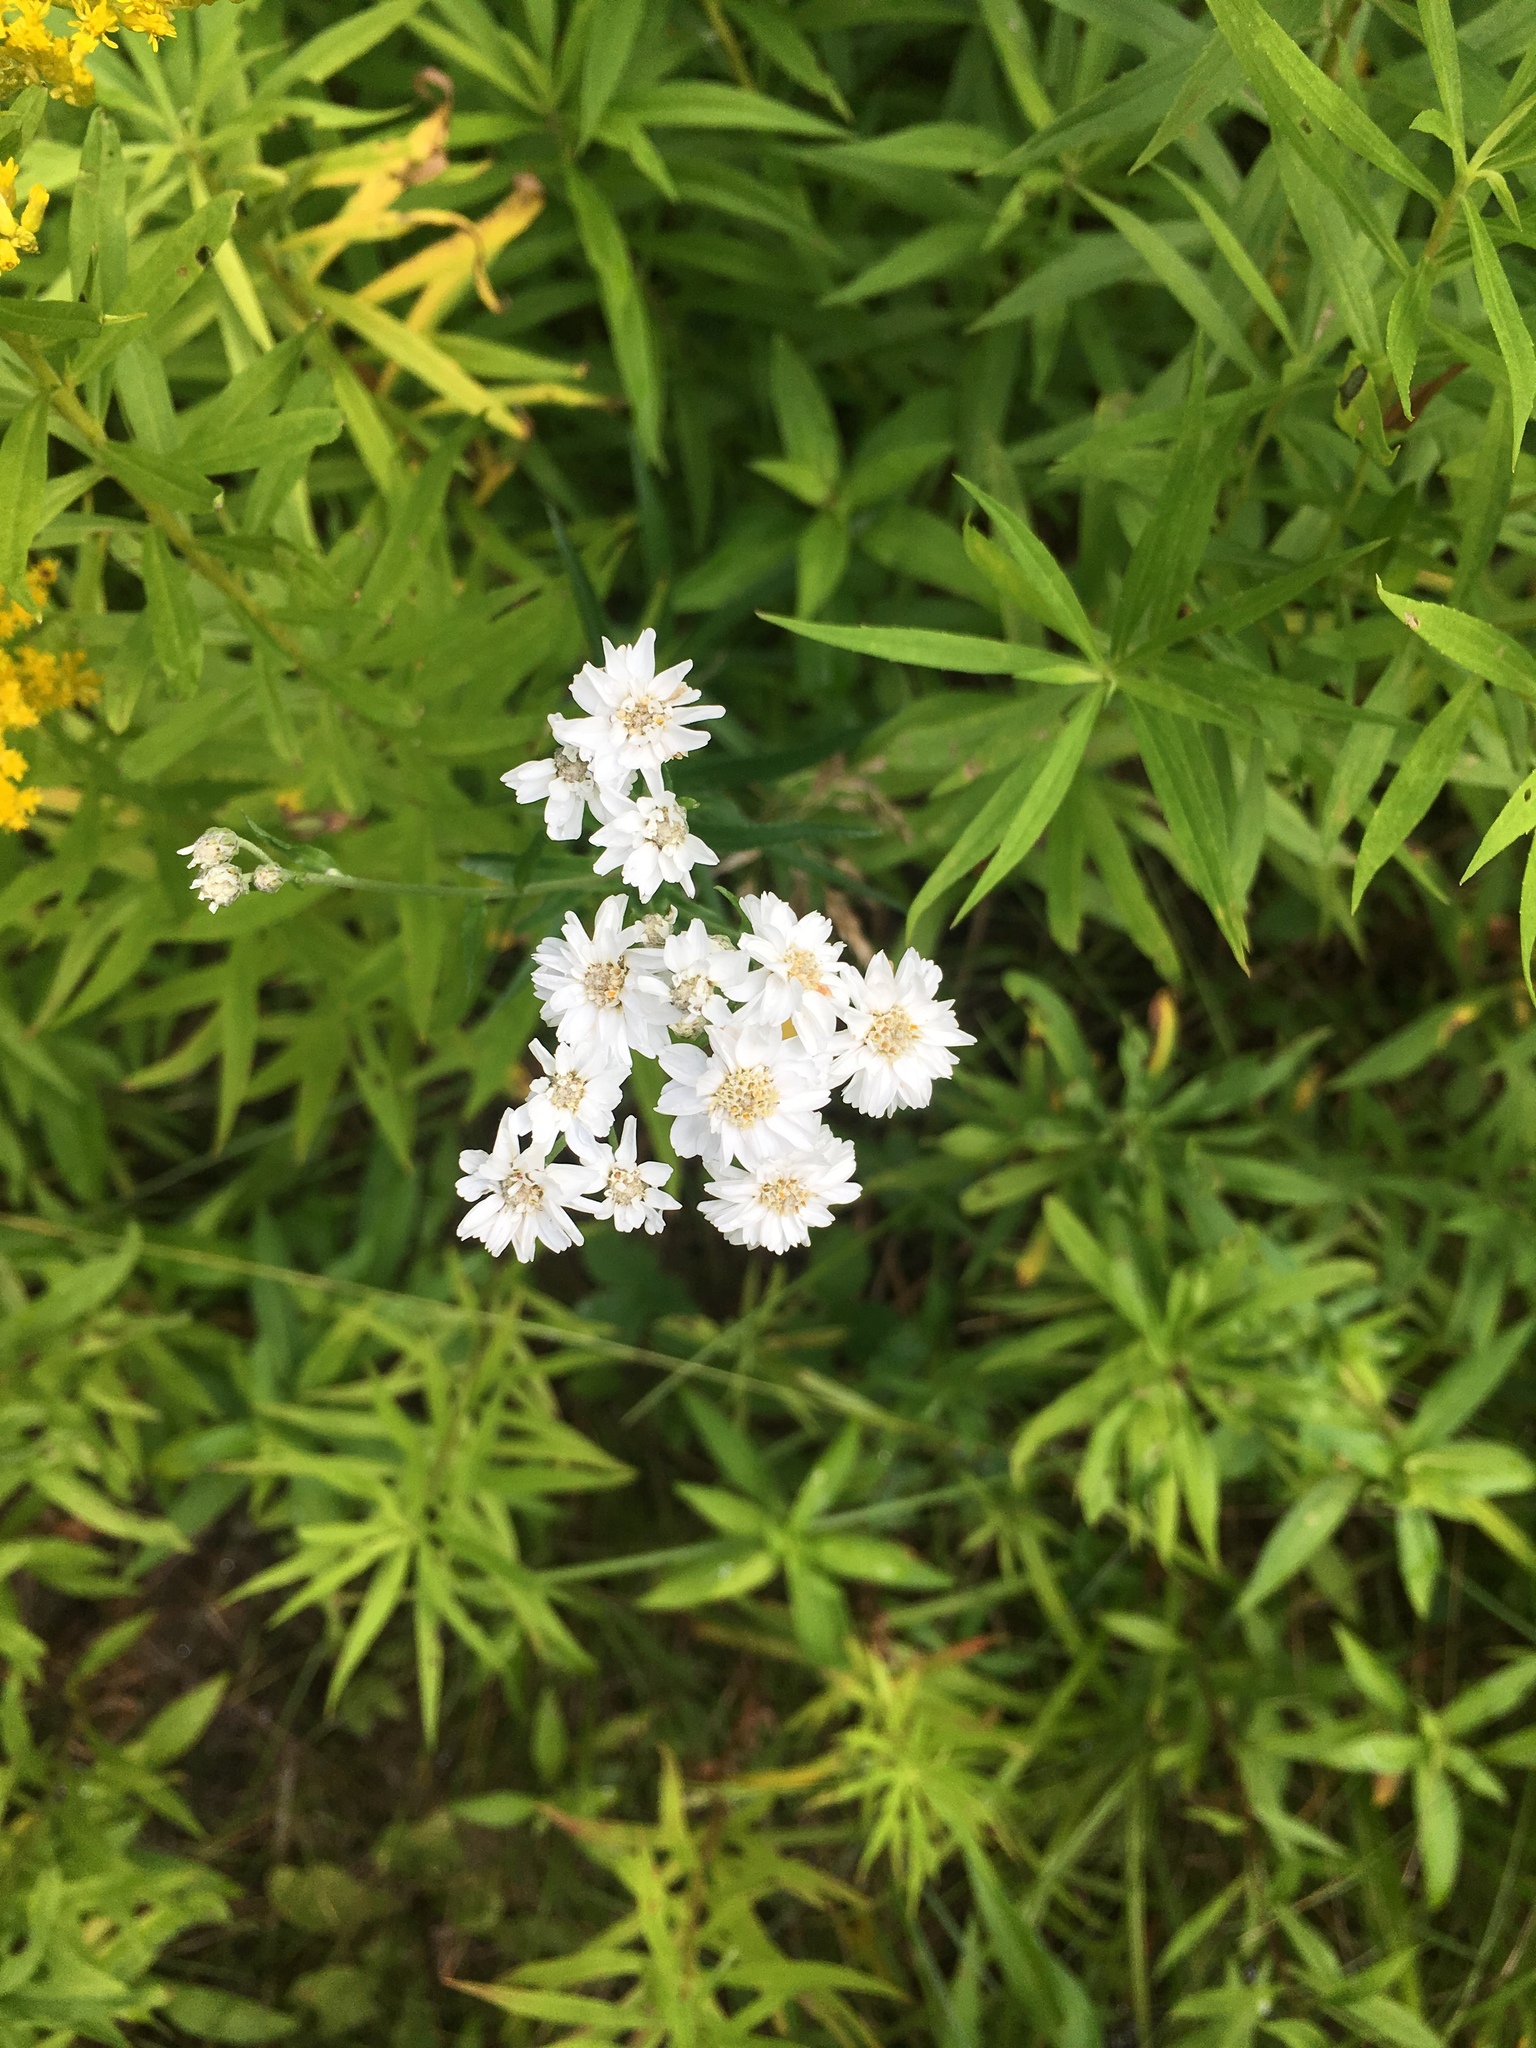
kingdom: Plantae
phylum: Tracheophyta
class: Magnoliopsida
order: Asterales
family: Asteraceae
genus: Achillea
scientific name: Achillea ptarmica
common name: Sneezeweed
